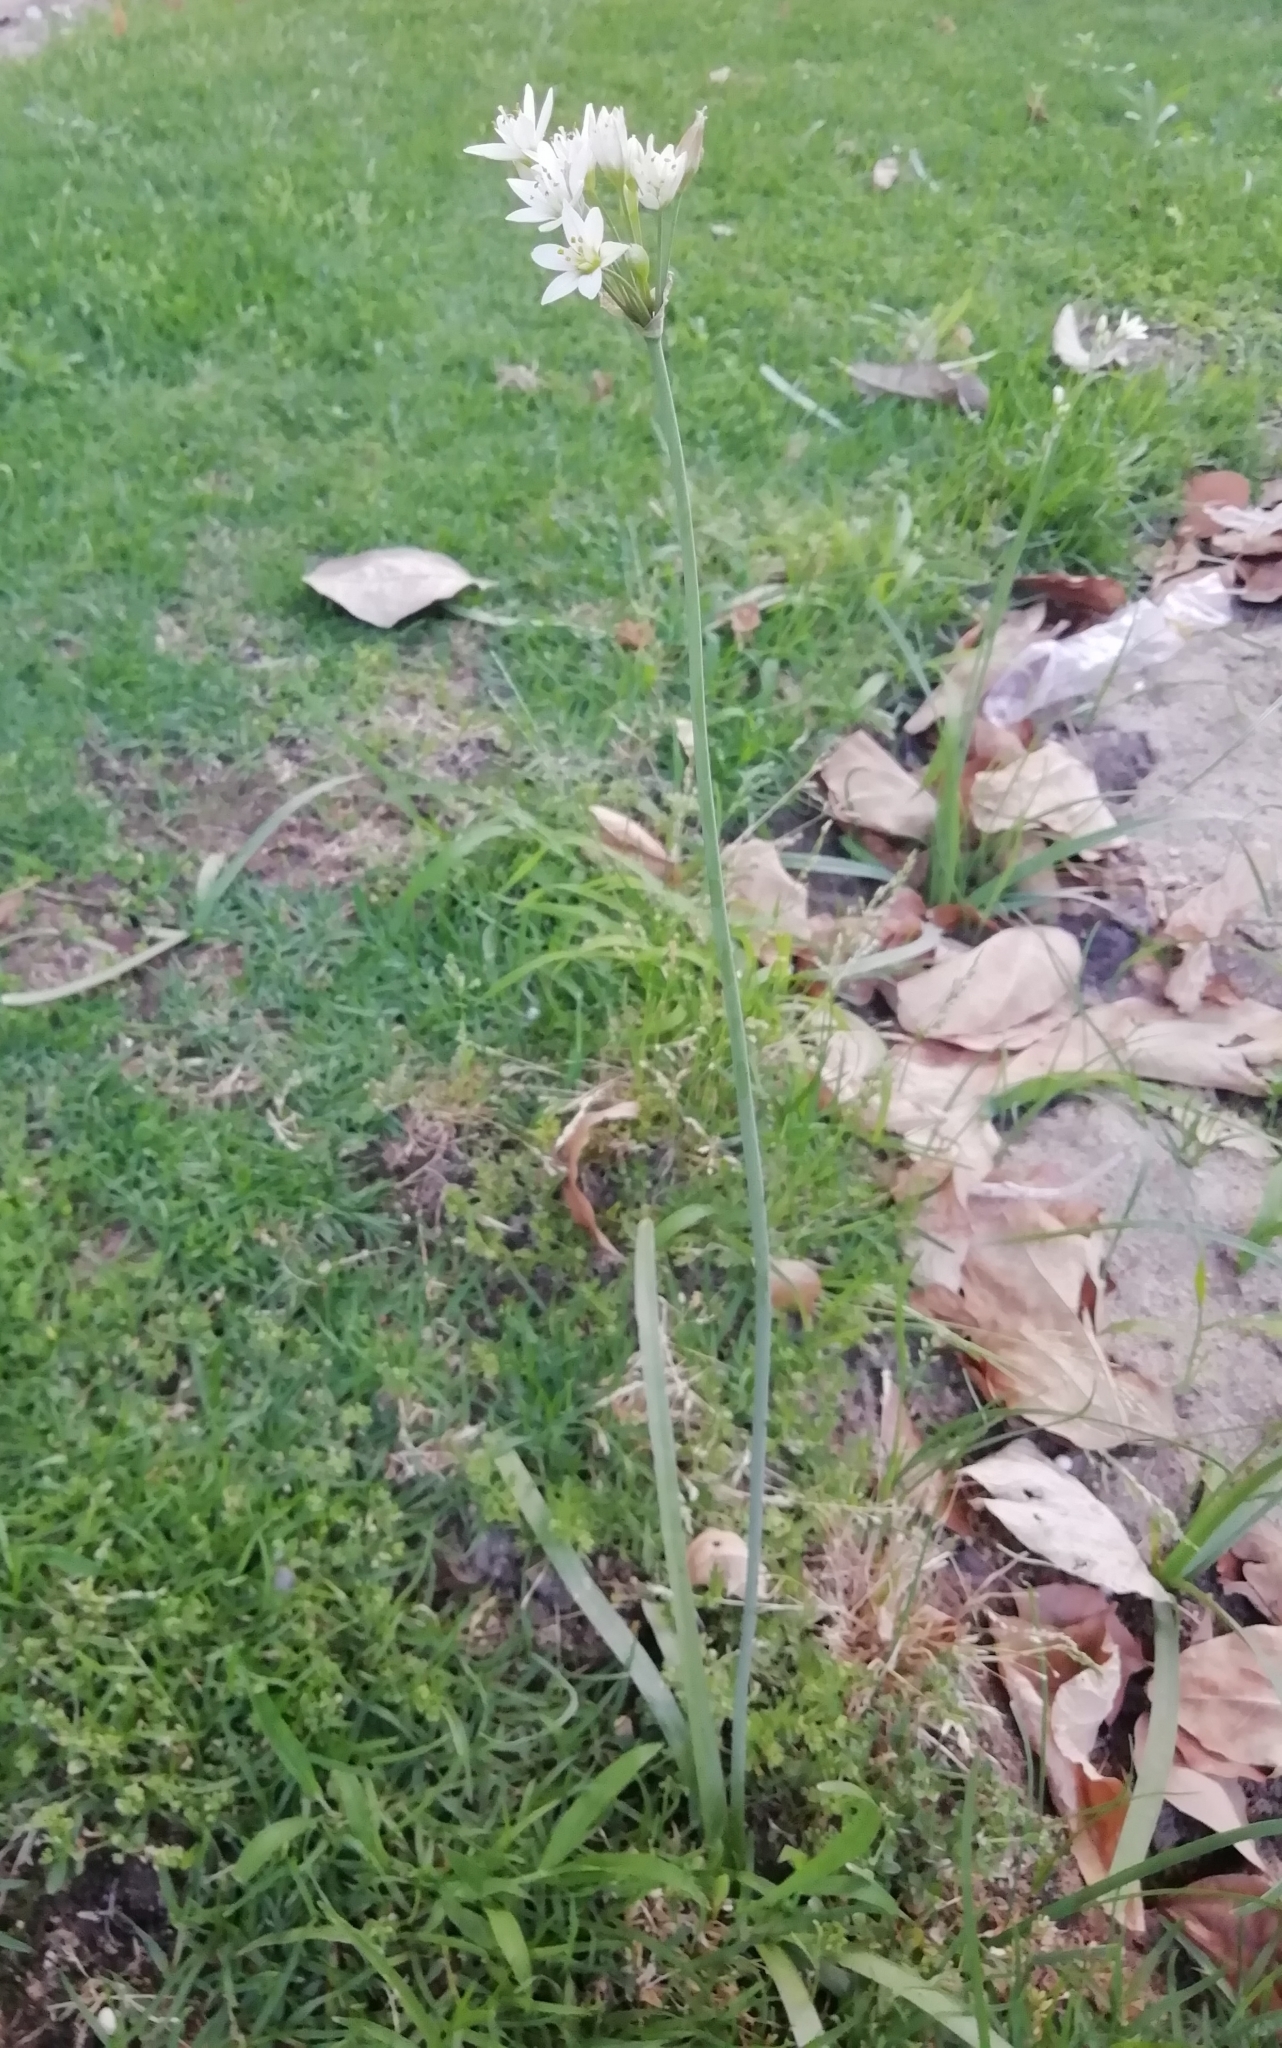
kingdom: Plantae
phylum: Tracheophyta
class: Liliopsida
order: Asparagales
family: Amaryllidaceae
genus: Nothoscordum
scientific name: Nothoscordum gracile
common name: Slender false garlic
